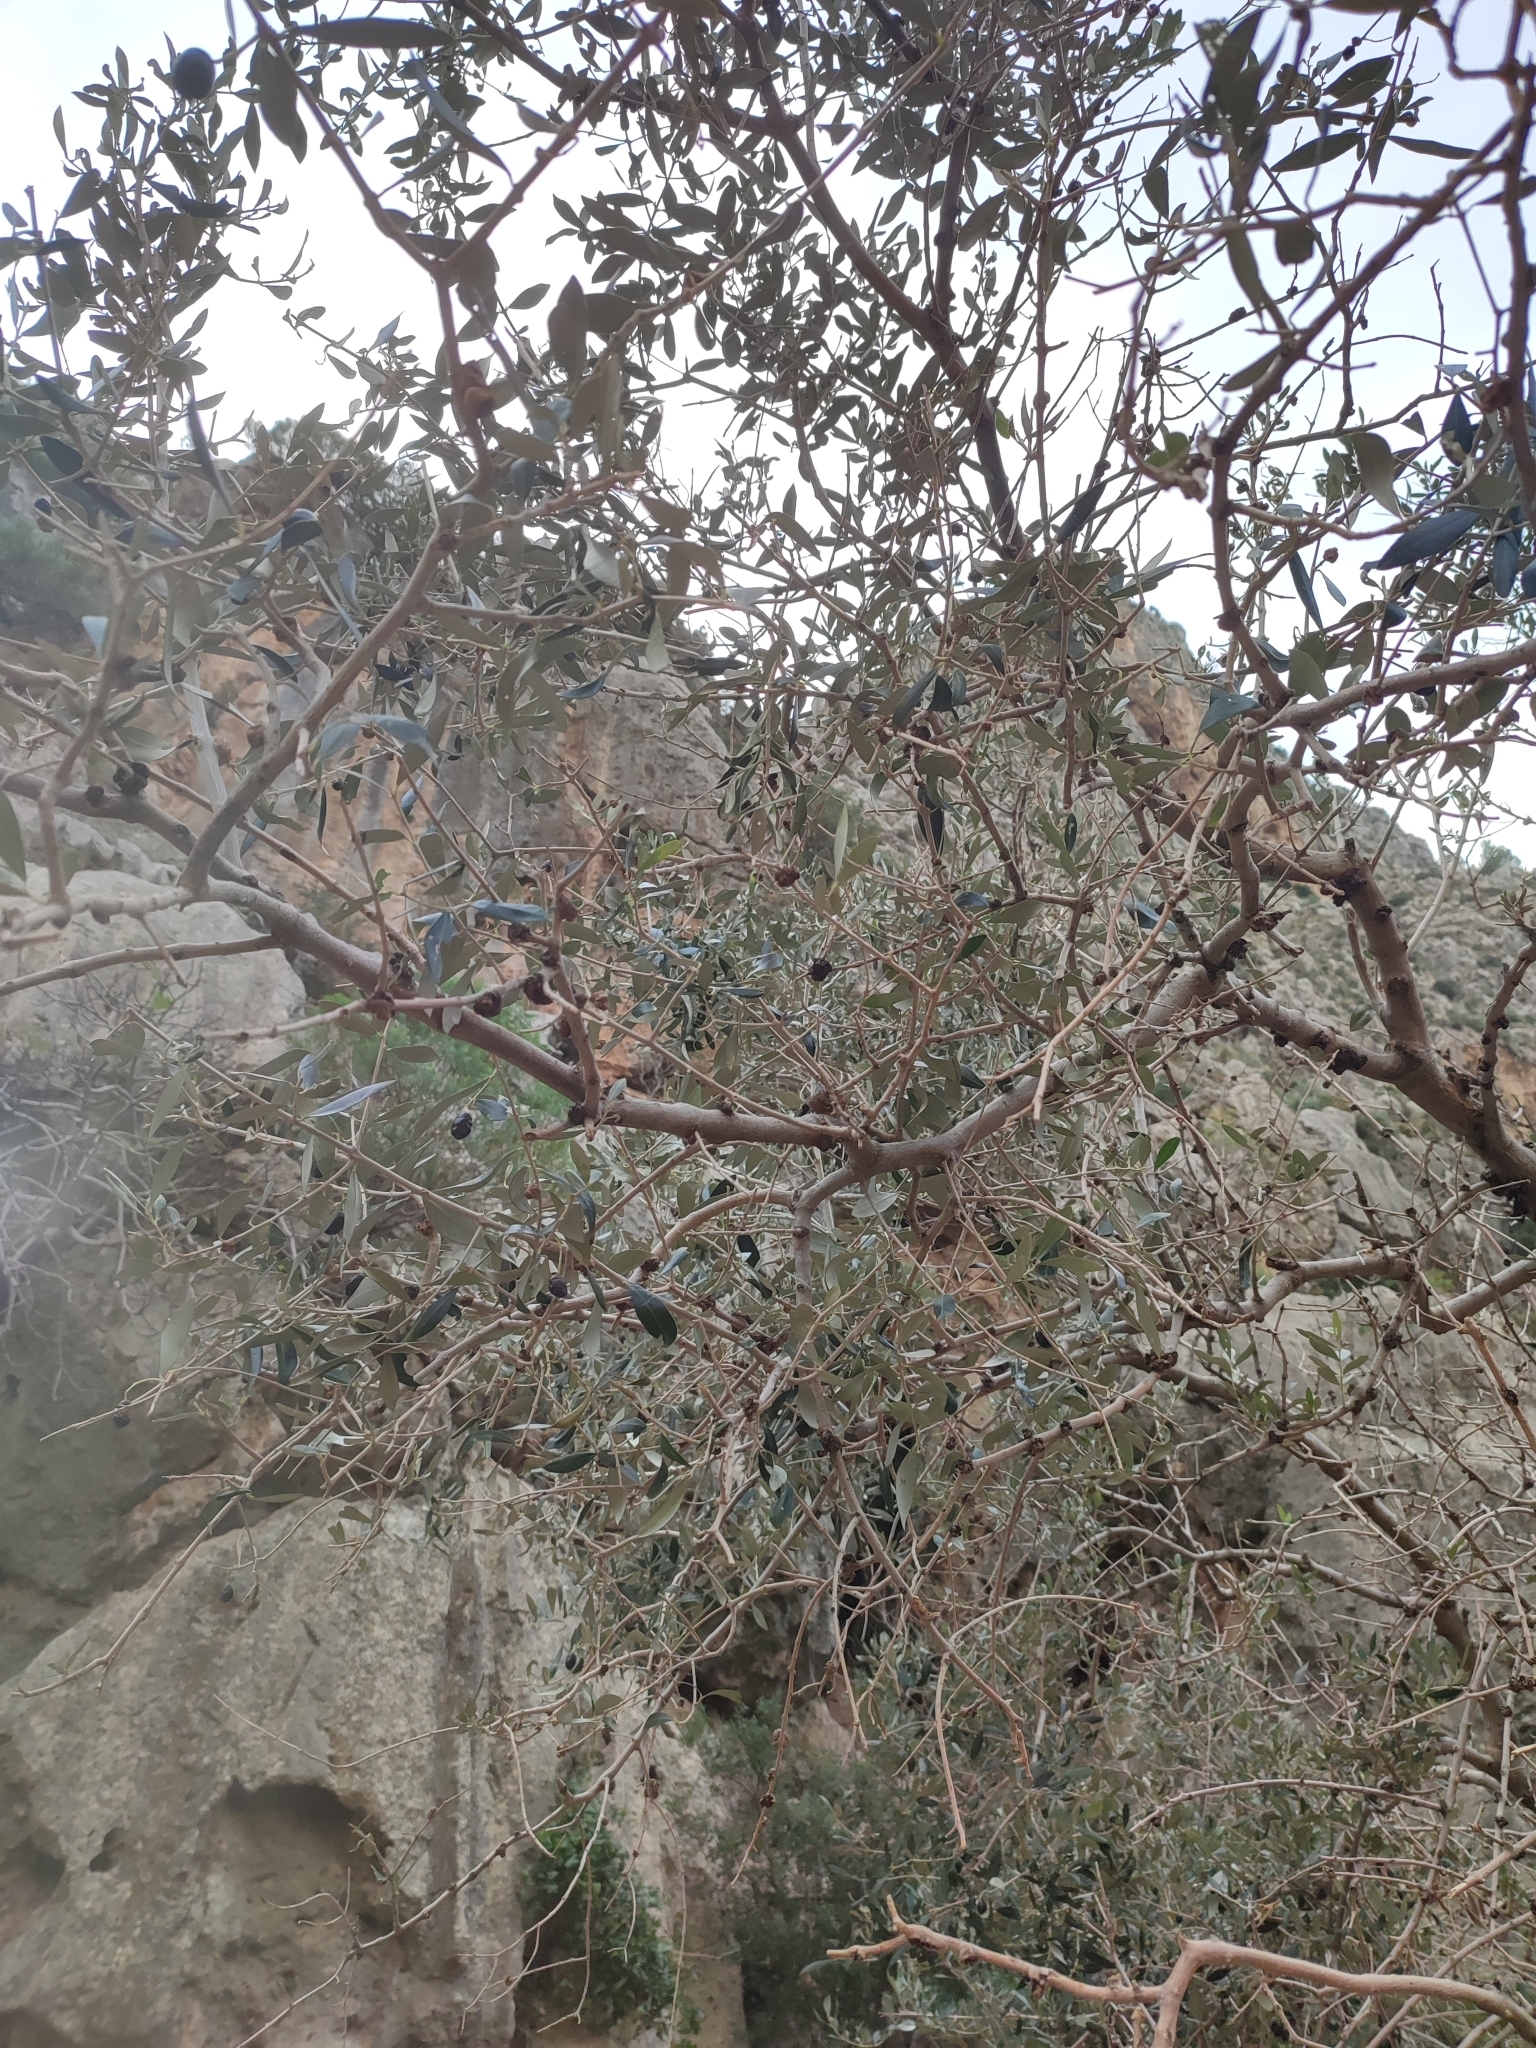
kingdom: Plantae
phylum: Tracheophyta
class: Magnoliopsida
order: Lamiales
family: Oleaceae
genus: Olea
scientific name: Olea europaea
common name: Olive
